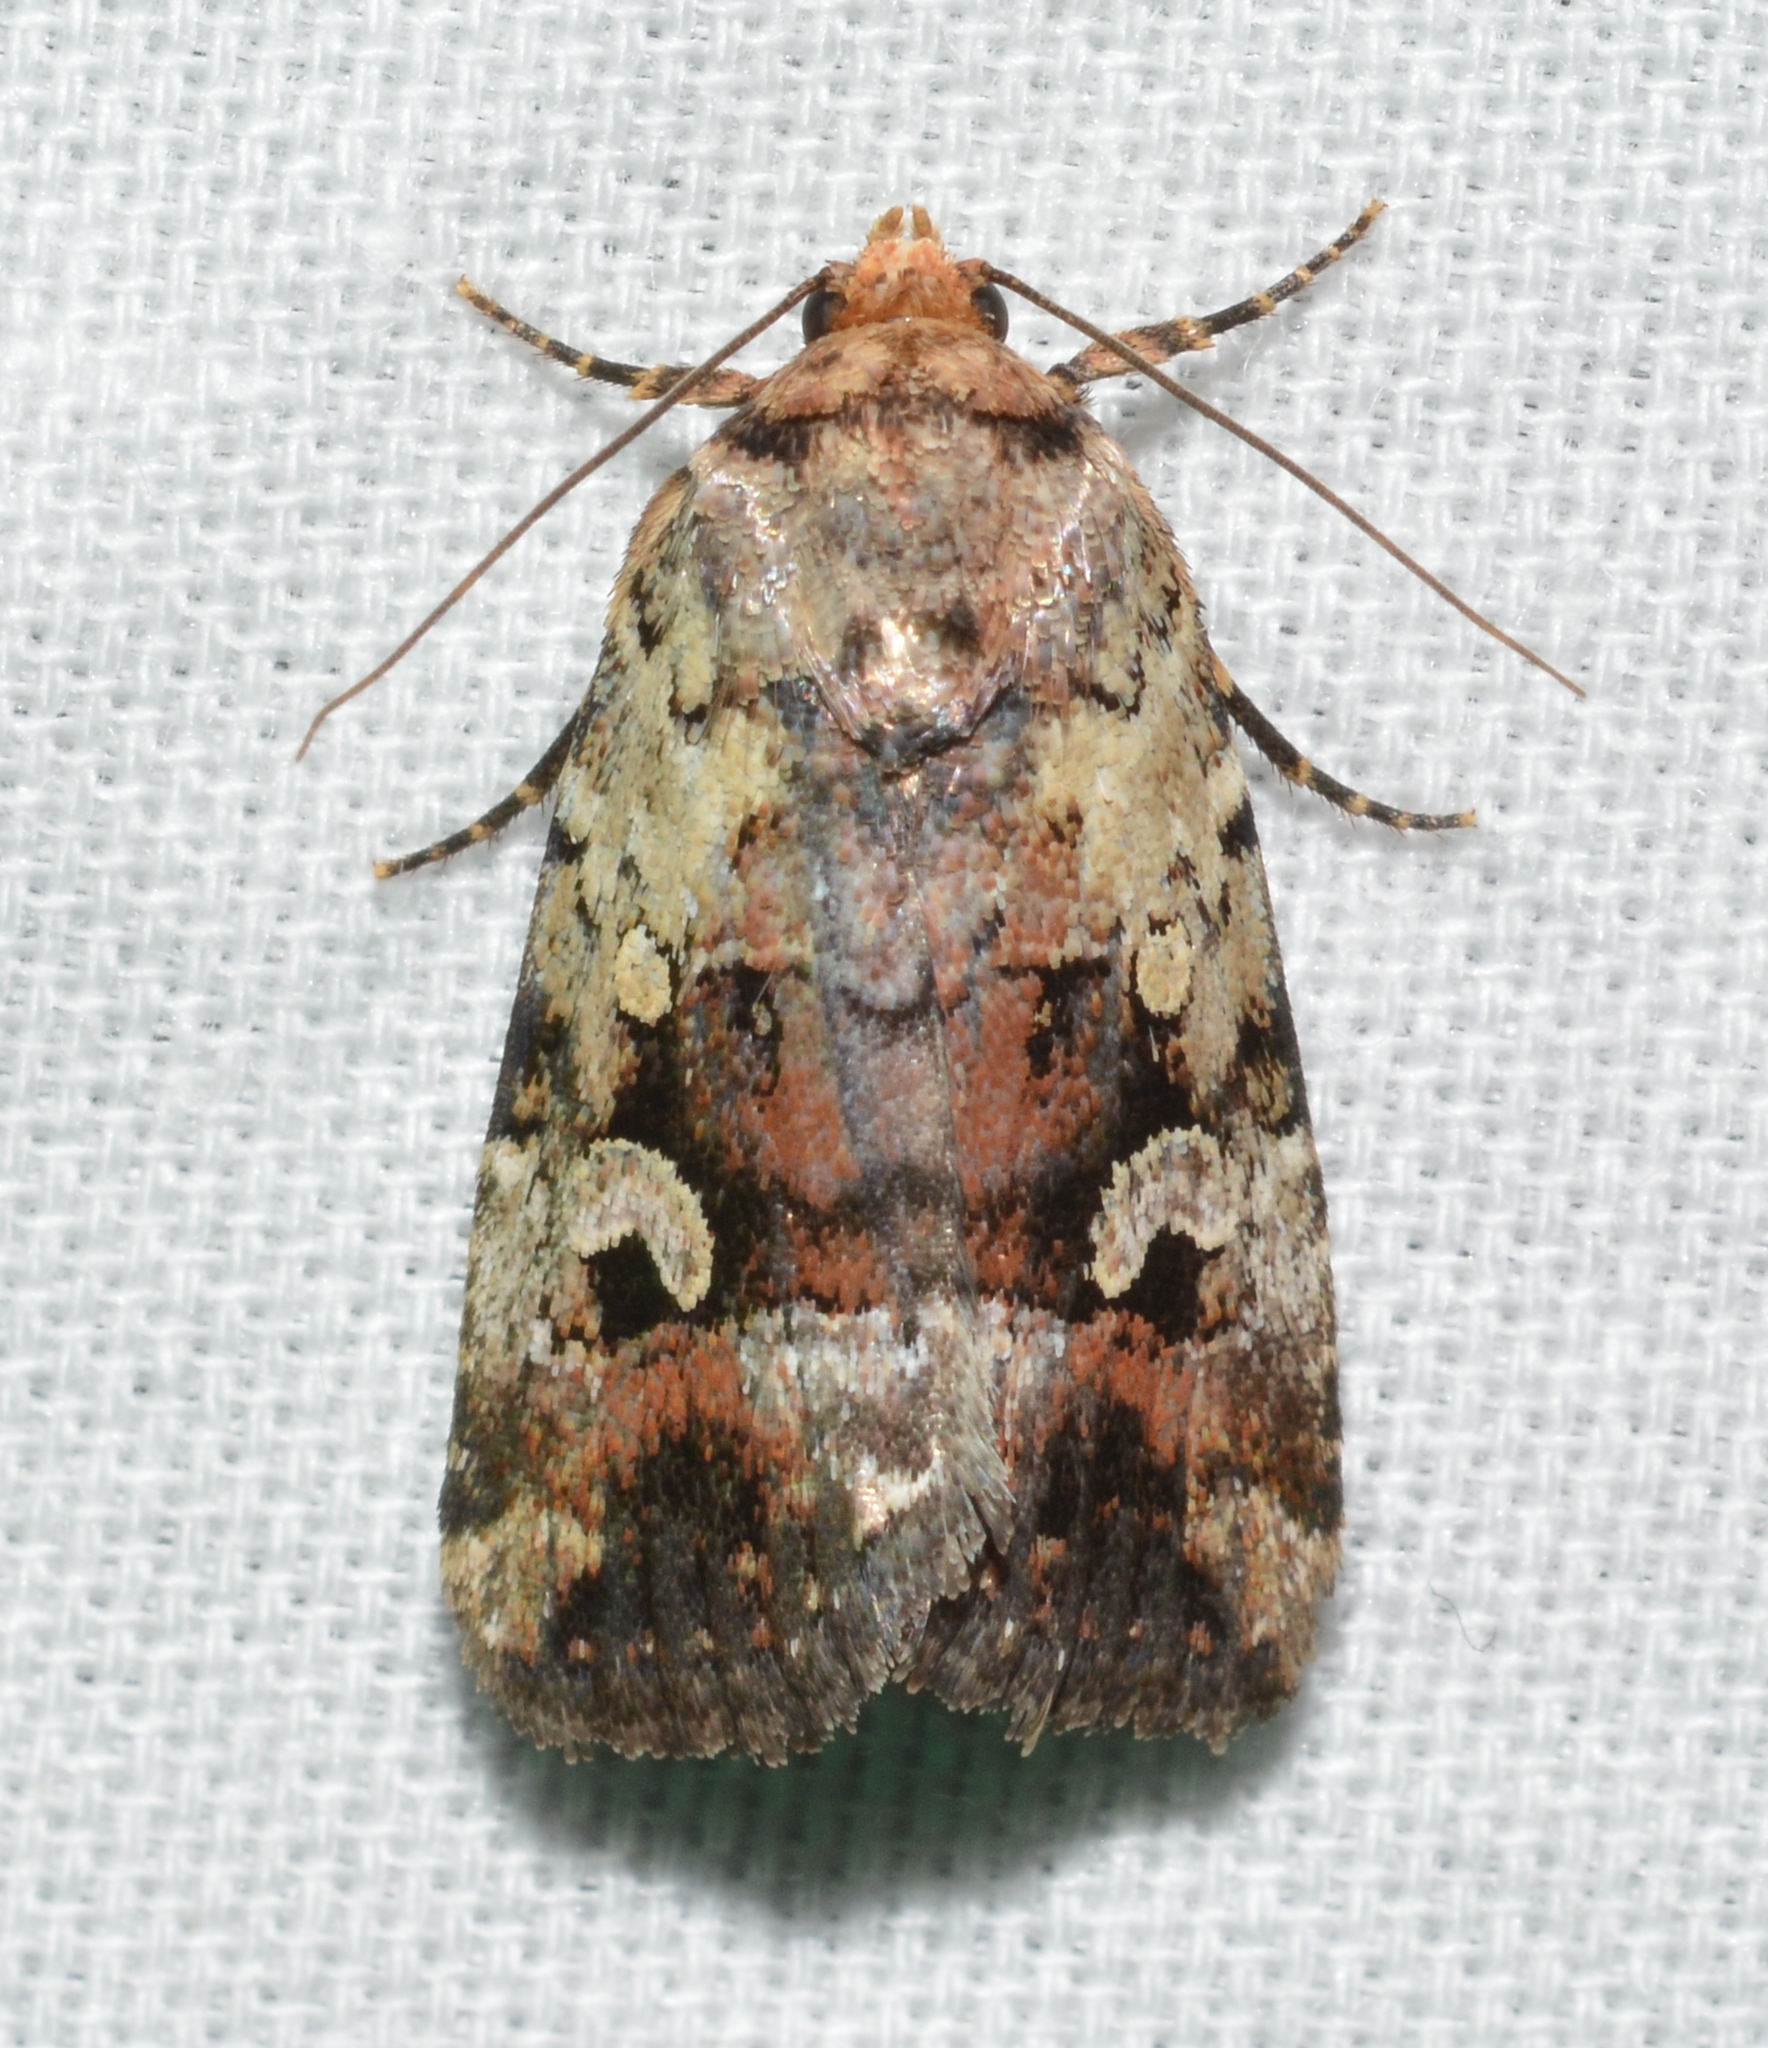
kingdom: Animalia
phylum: Arthropoda
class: Insecta
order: Lepidoptera
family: Noctuidae
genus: Elaphria
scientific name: Elaphria festivoides
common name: Festive midget
